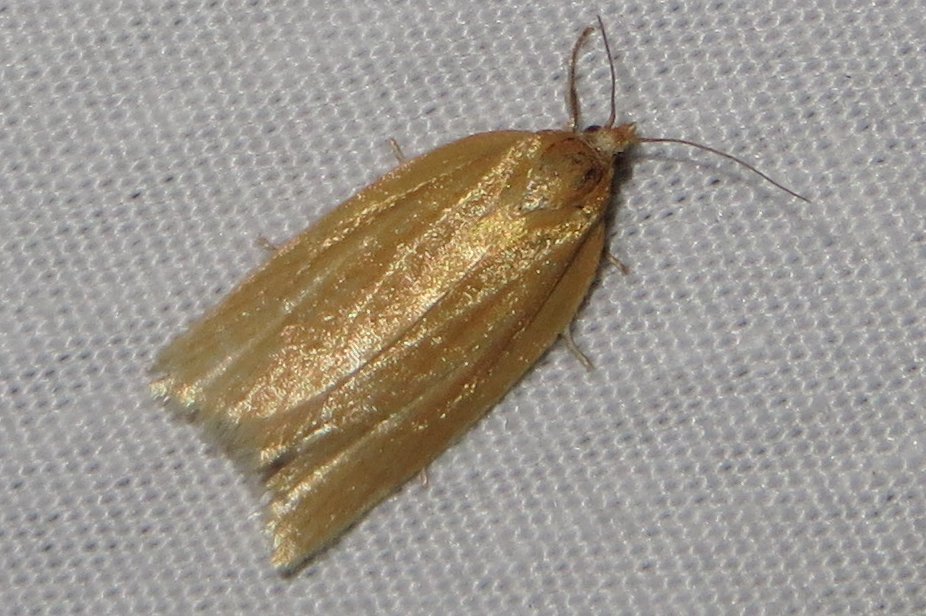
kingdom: Animalia
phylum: Arthropoda
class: Insecta
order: Lepidoptera
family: Tortricidae
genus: Clepsis
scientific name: Clepsis clemensiana
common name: Clemens' clepsis moth
